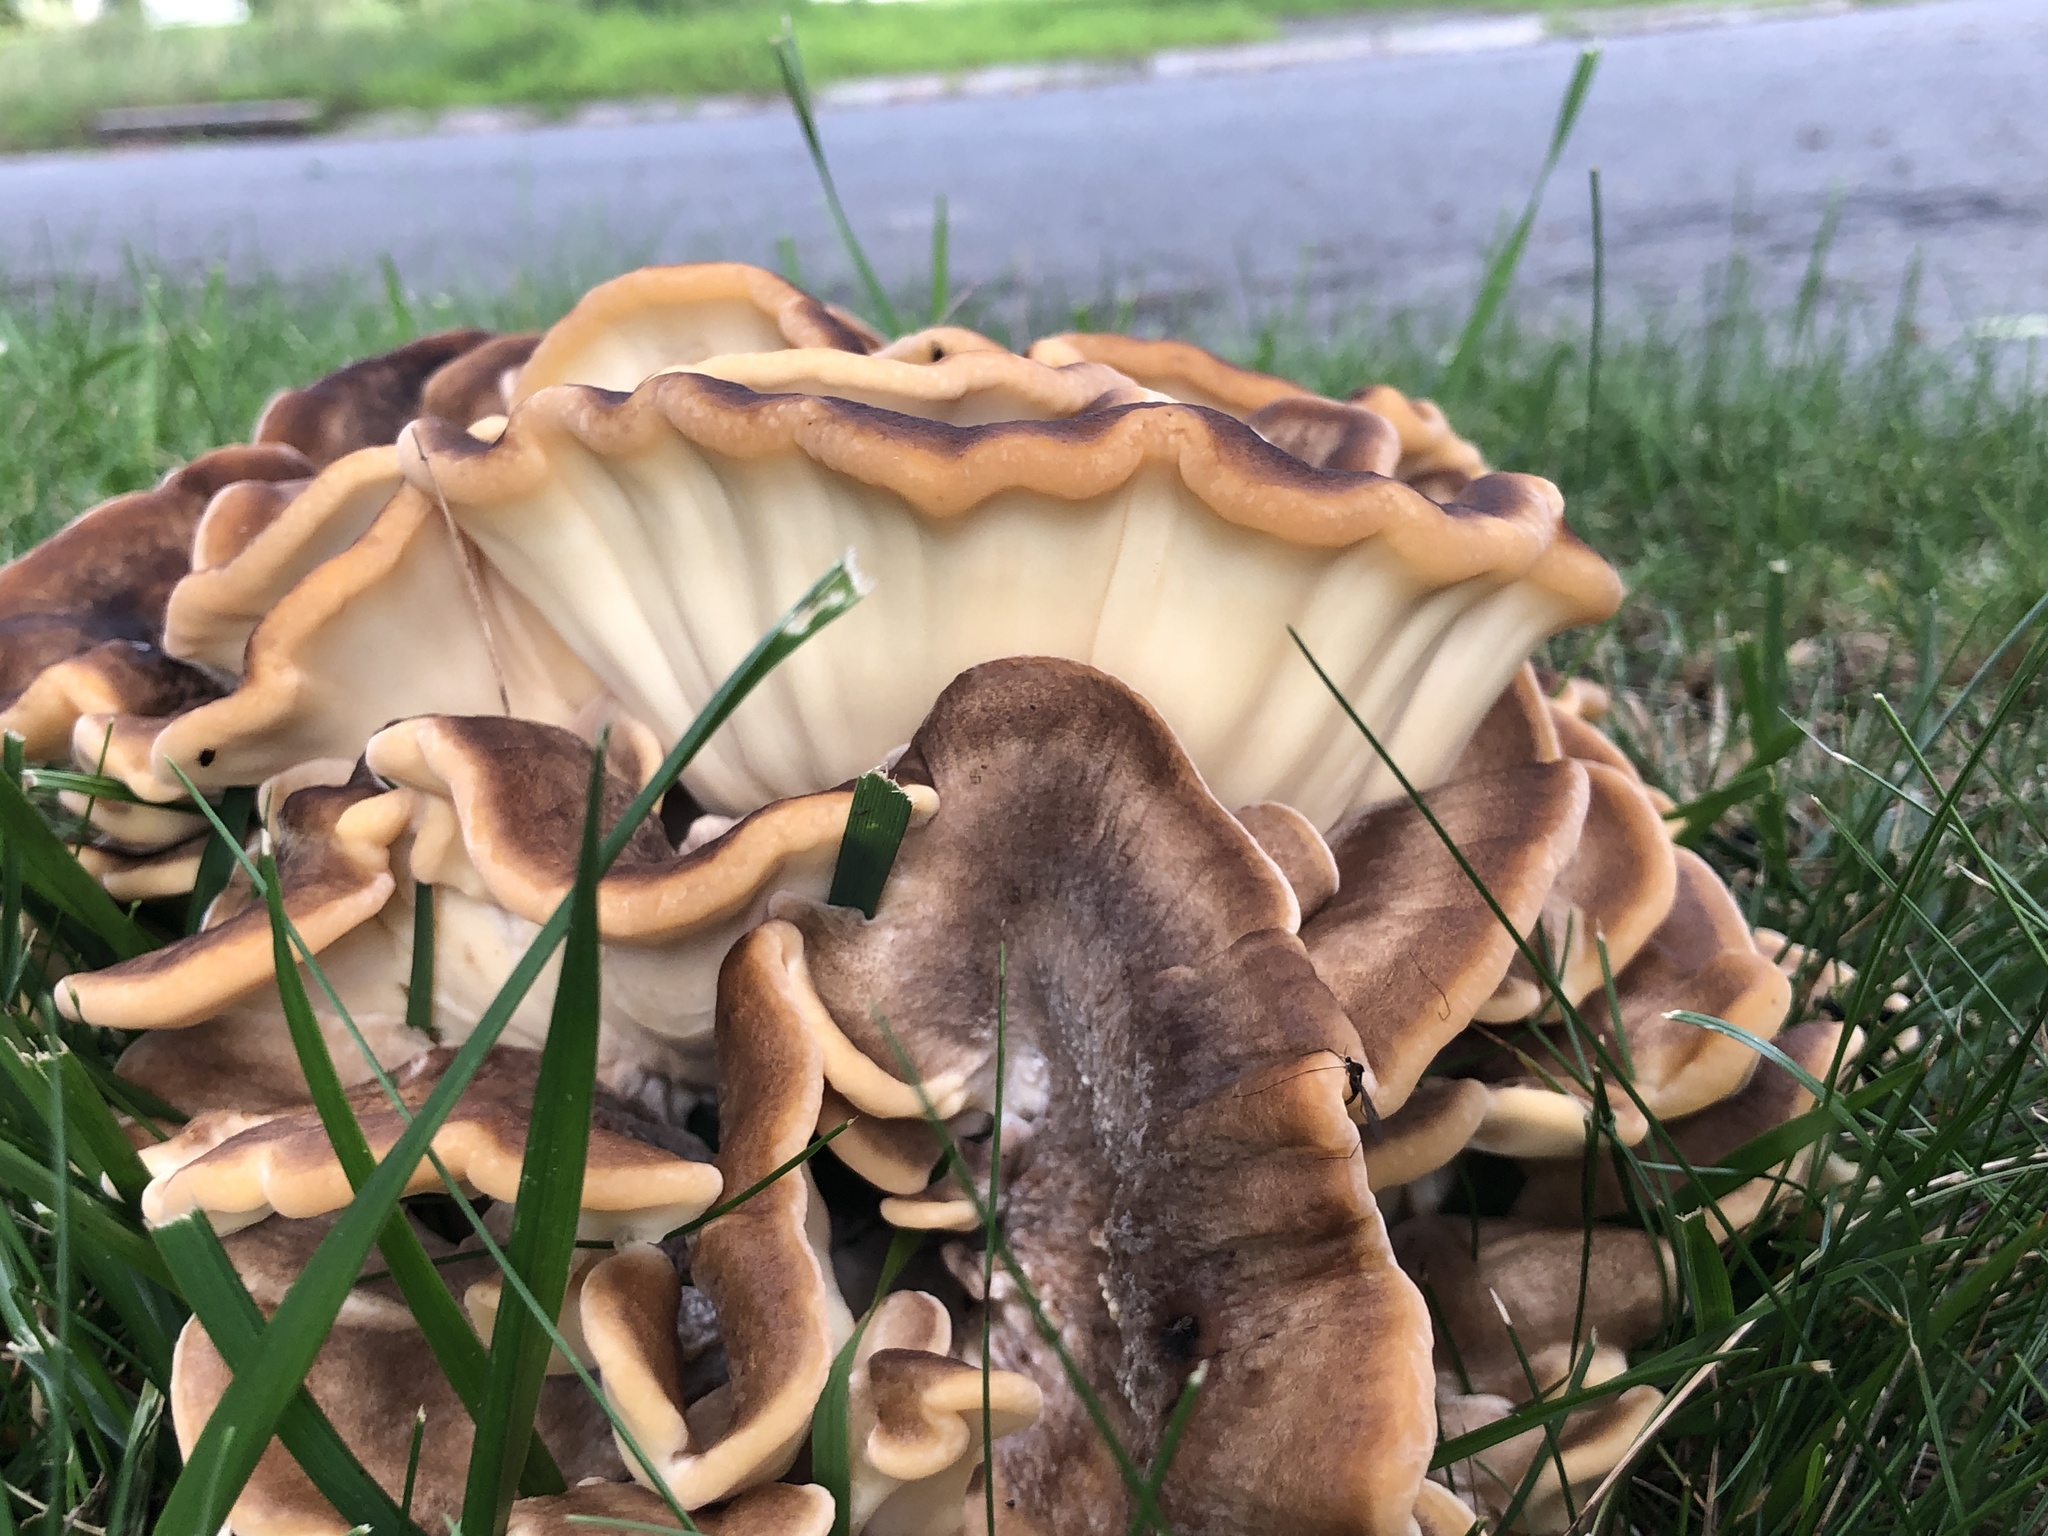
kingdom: Fungi
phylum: Basidiomycota
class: Agaricomycetes
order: Polyporales
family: Meripilaceae
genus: Meripilus
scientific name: Meripilus sumstinei
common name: Black-staining polypore
